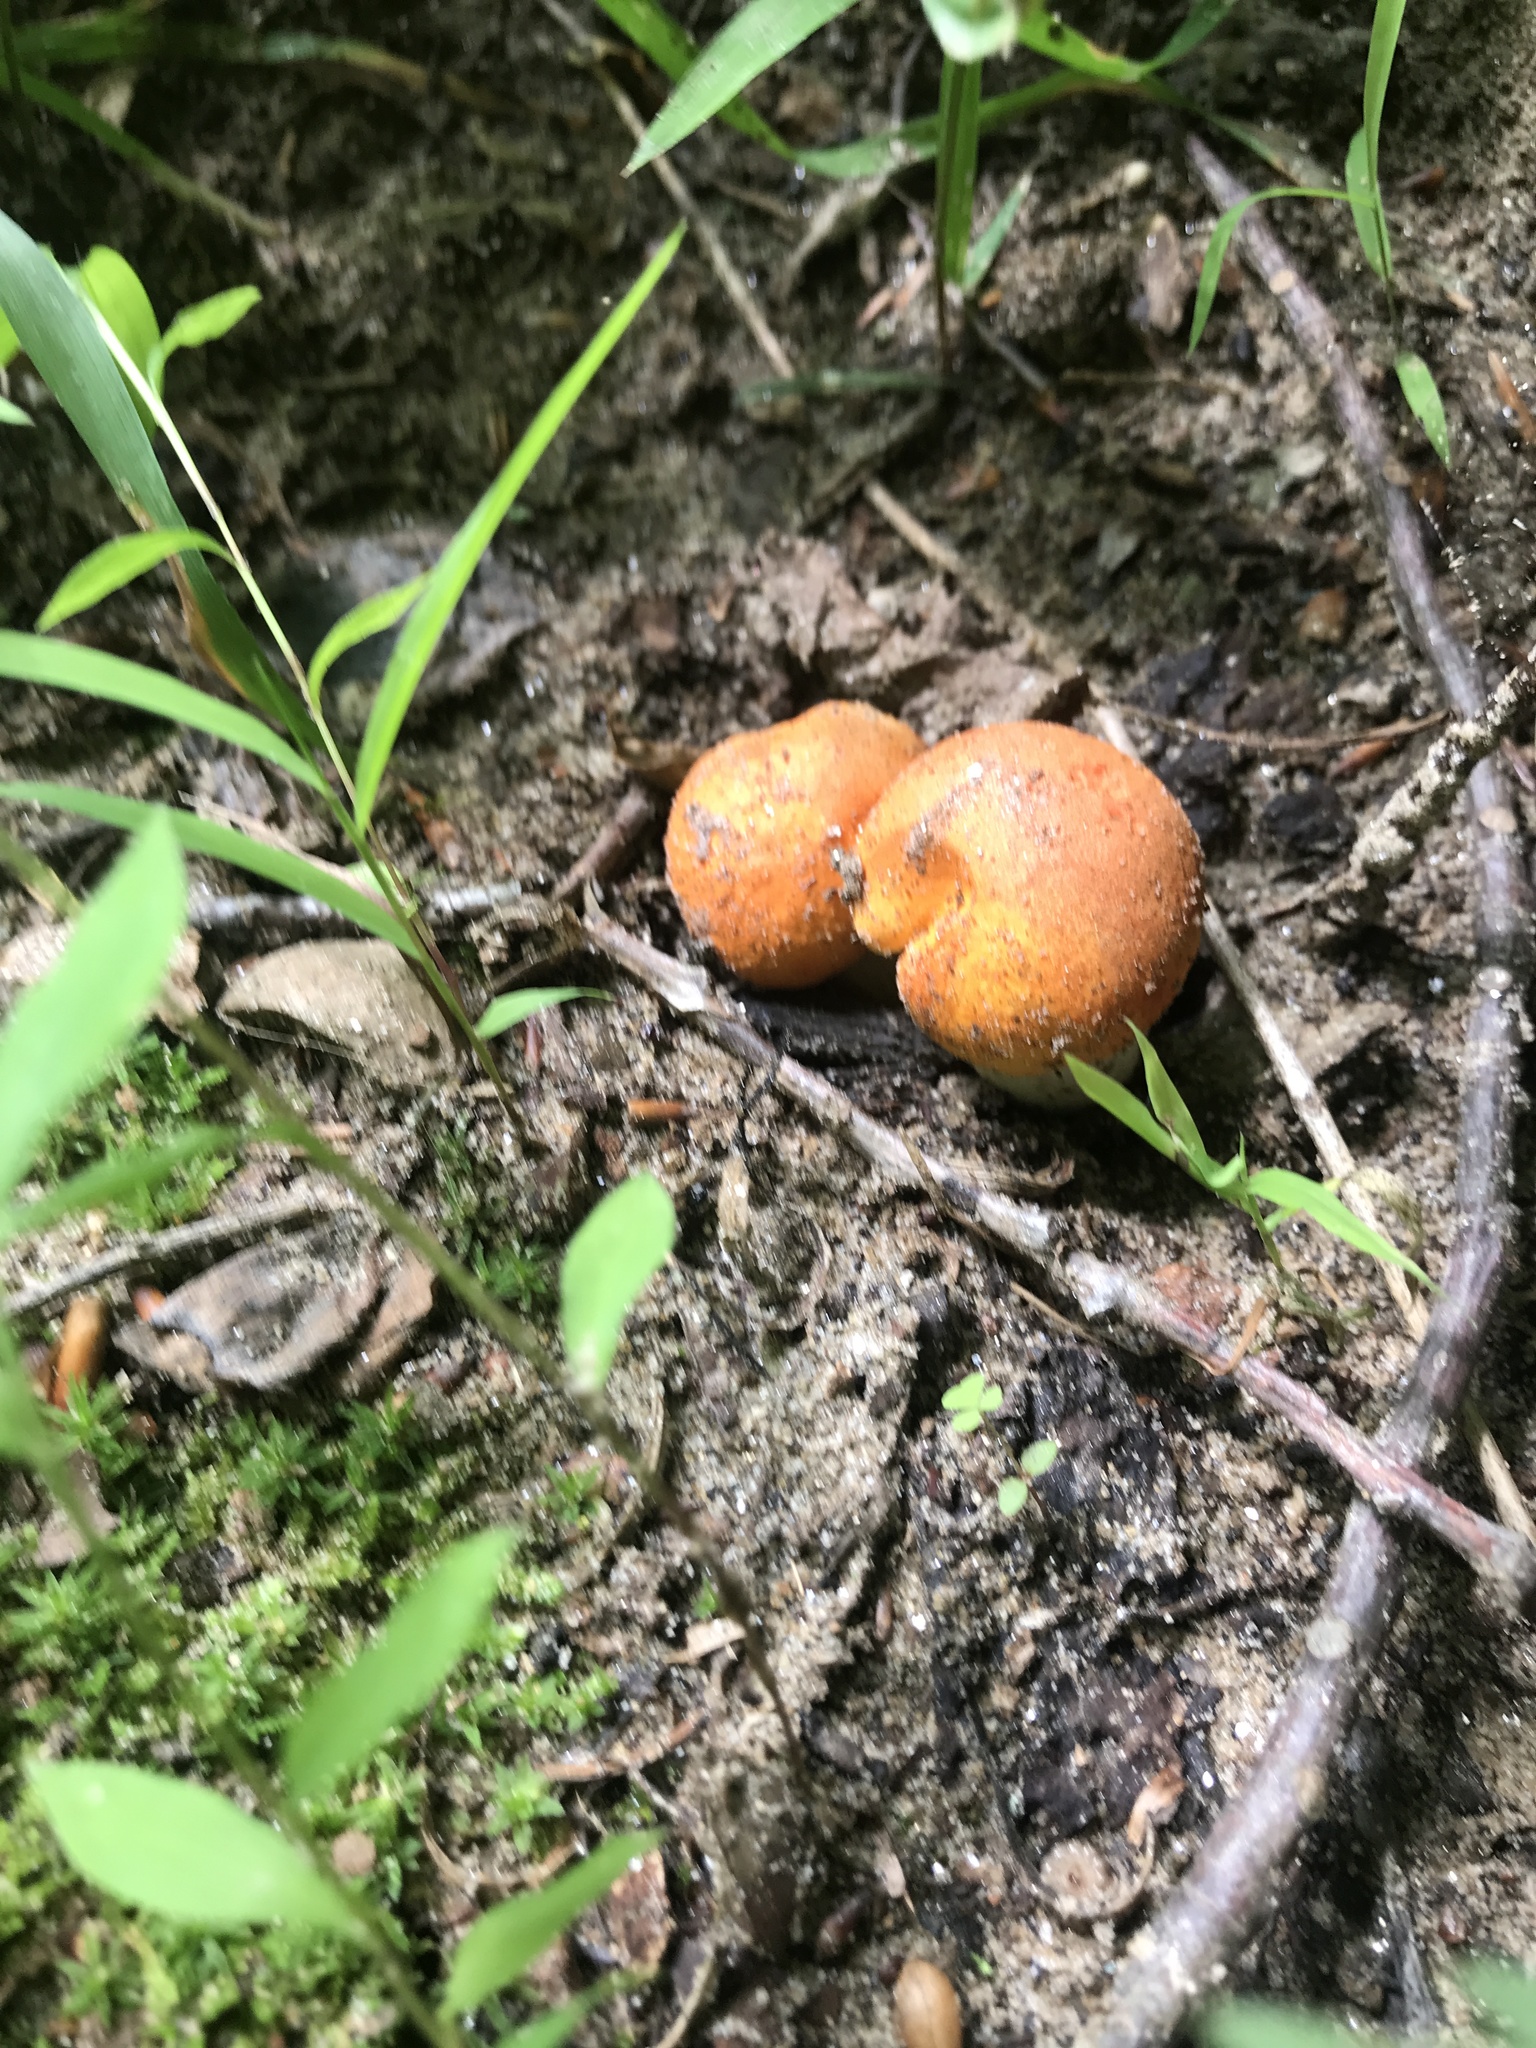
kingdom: Fungi
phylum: Basidiomycota
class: Agaricomycetes
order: Boletales
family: Boletaceae
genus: Tylopilus
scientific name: Tylopilus balloui
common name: Burnt-orange bolete
